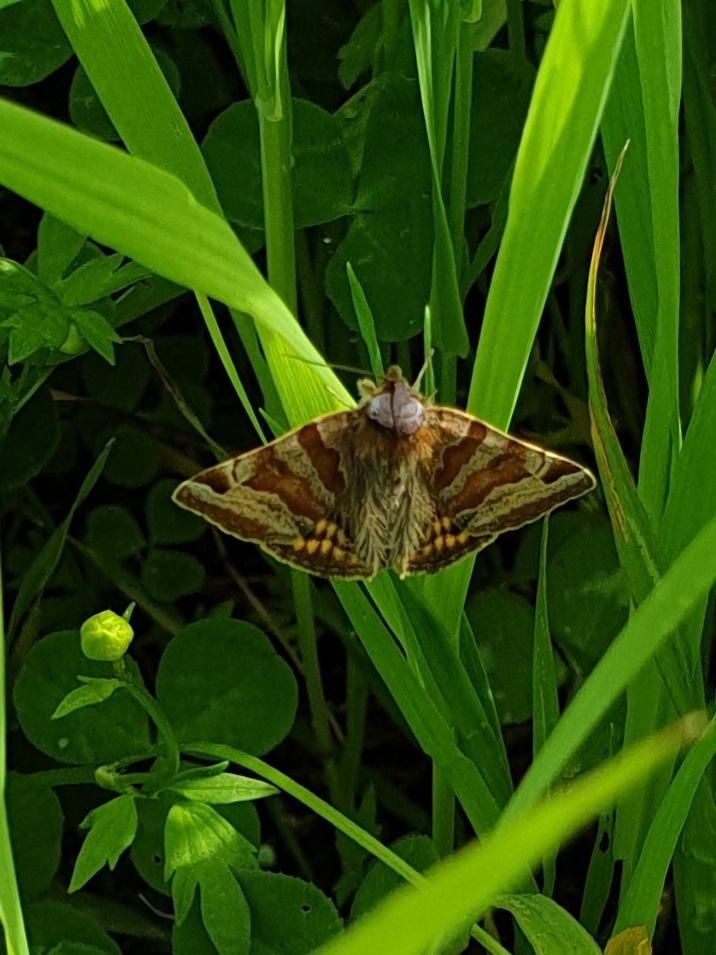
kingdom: Animalia
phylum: Arthropoda
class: Insecta
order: Lepidoptera
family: Erebidae
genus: Euclidia
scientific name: Euclidia glyphica
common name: Burnet companion
